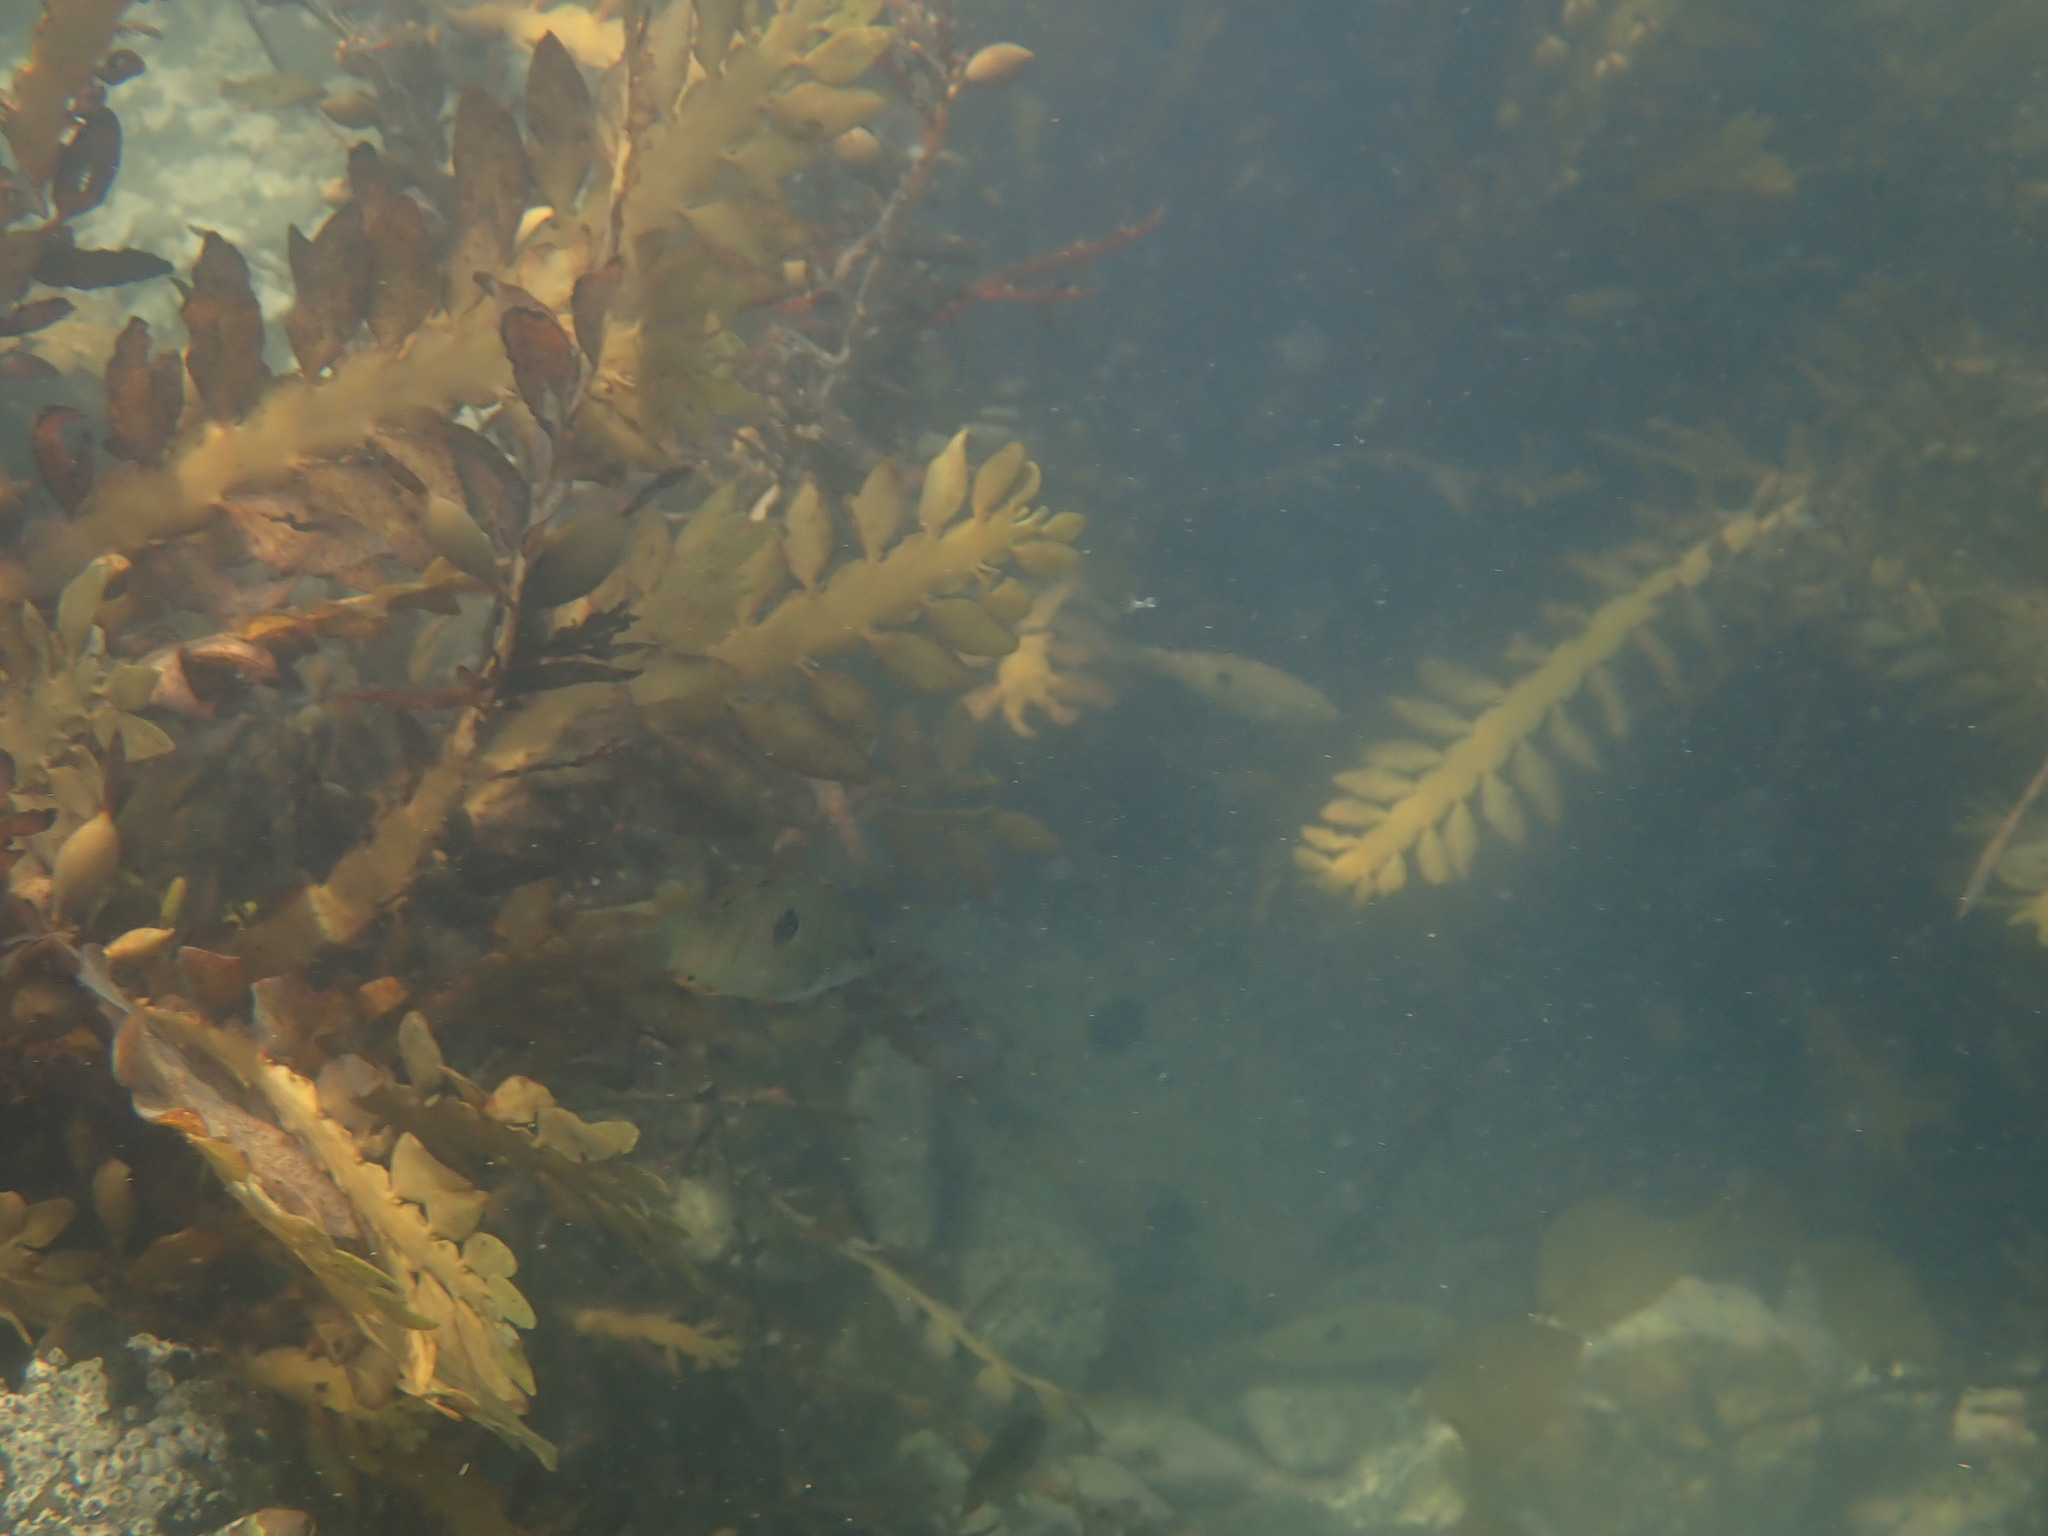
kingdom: Chromista
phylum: Ochrophyta
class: Phaeophyceae
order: Fucales
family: Sargassaceae
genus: Carpophyllum
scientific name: Carpophyllum maschalocarpum
